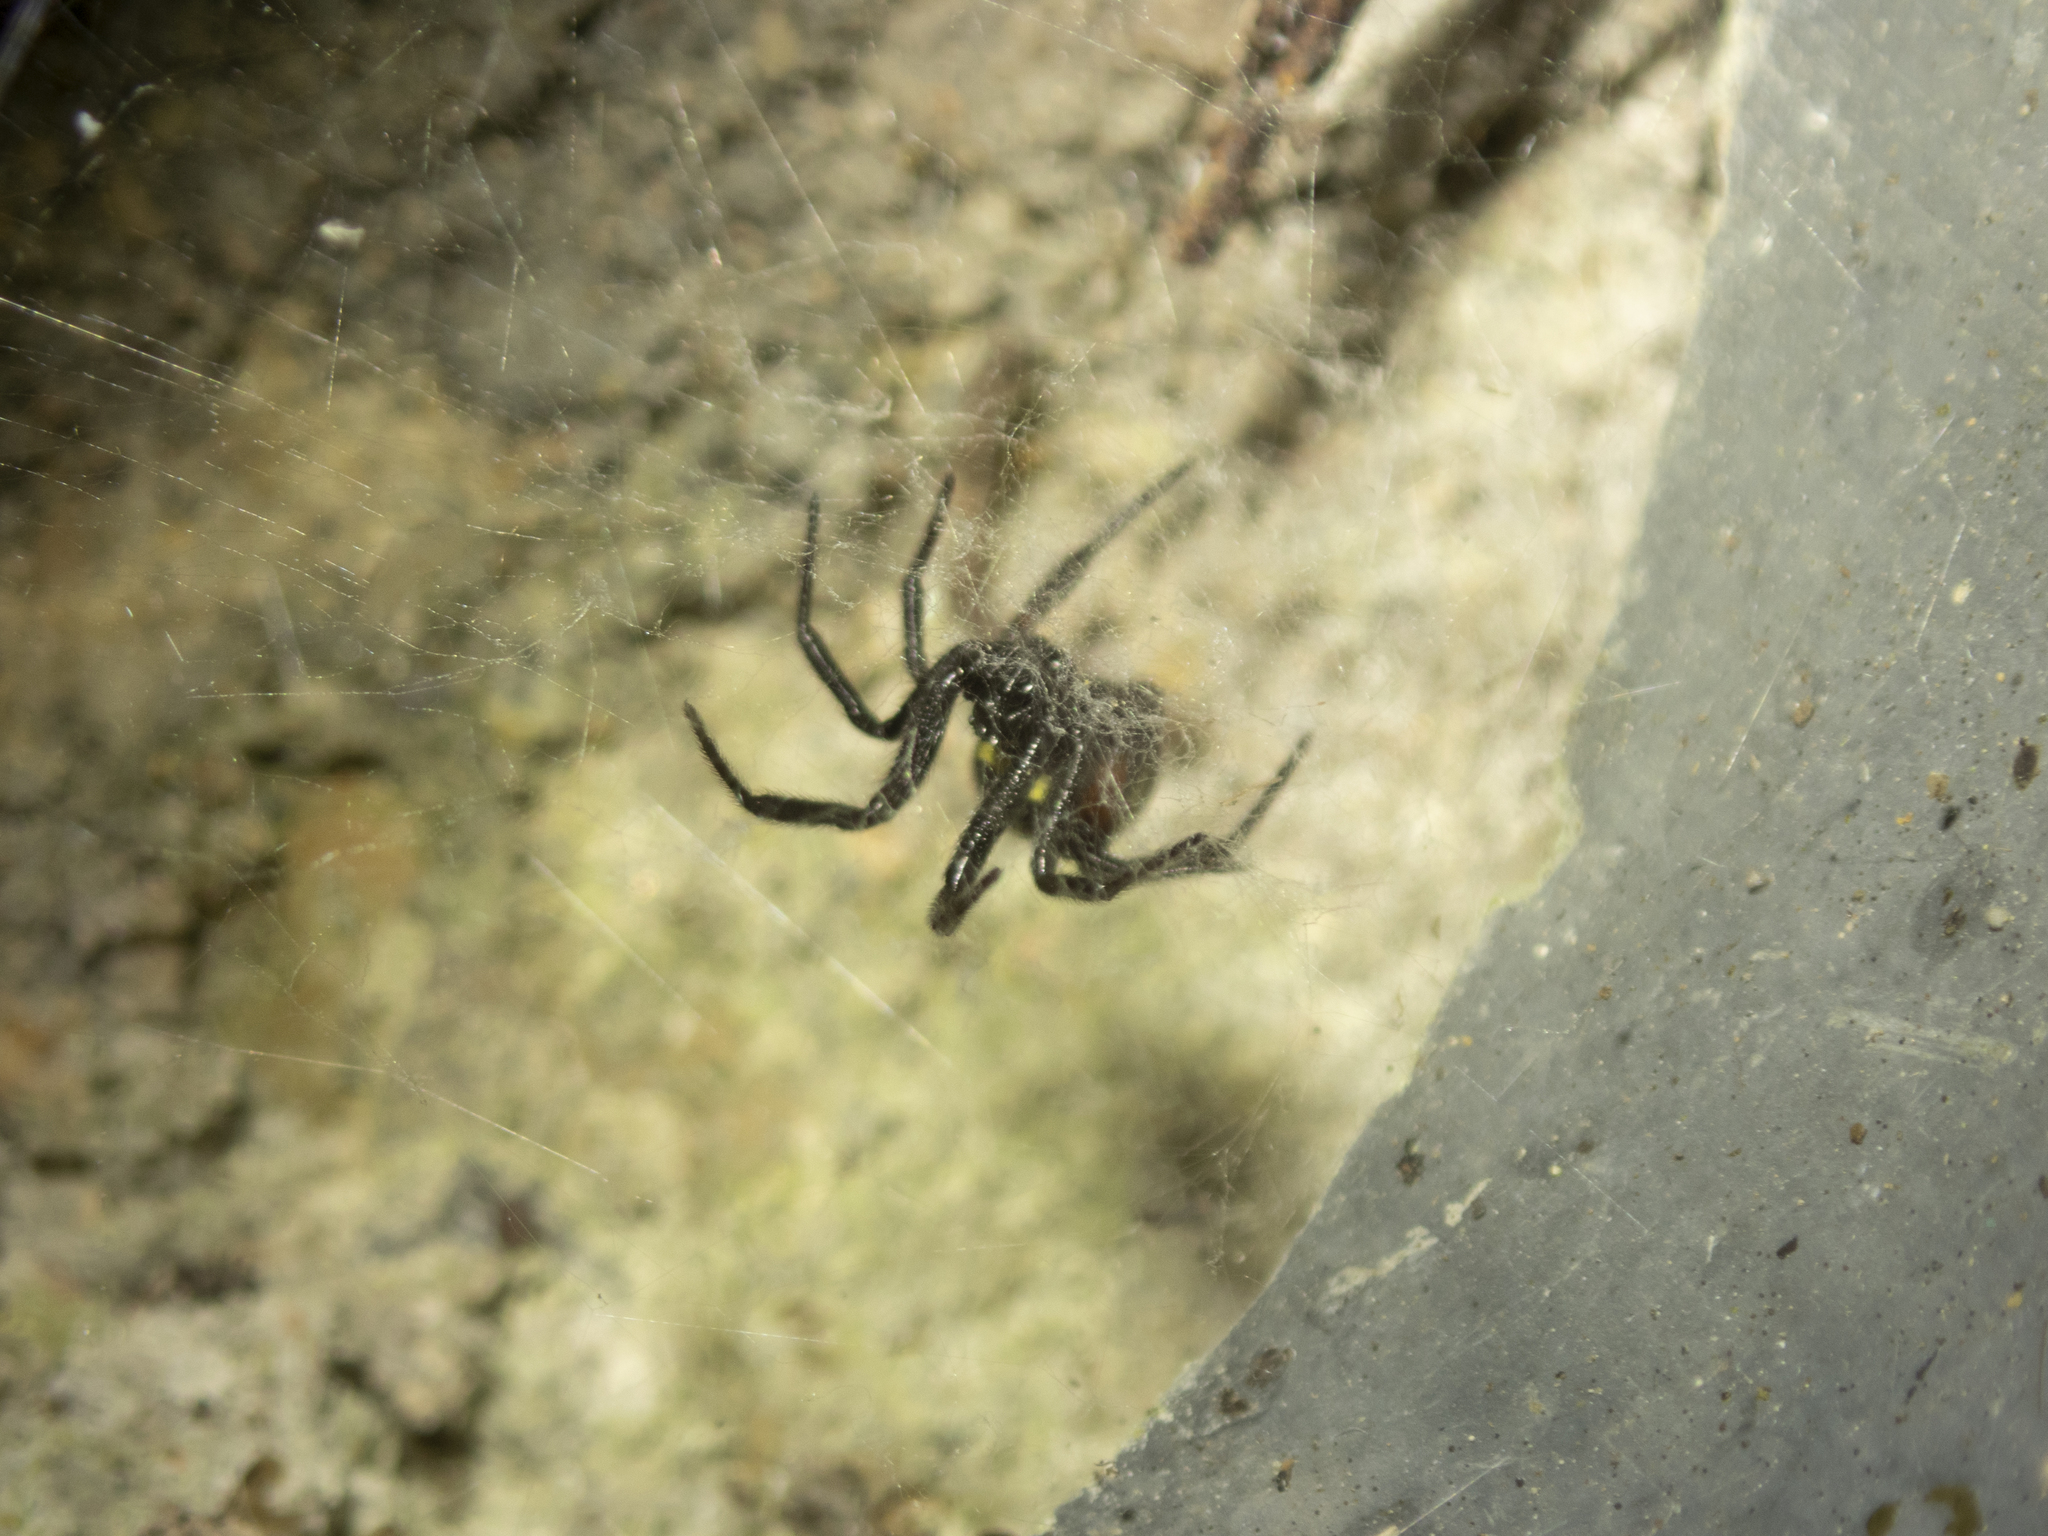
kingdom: Animalia
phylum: Arthropoda
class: Arachnida
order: Araneae
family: Theridiidae
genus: Steatoda
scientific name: Steatoda cingulata
